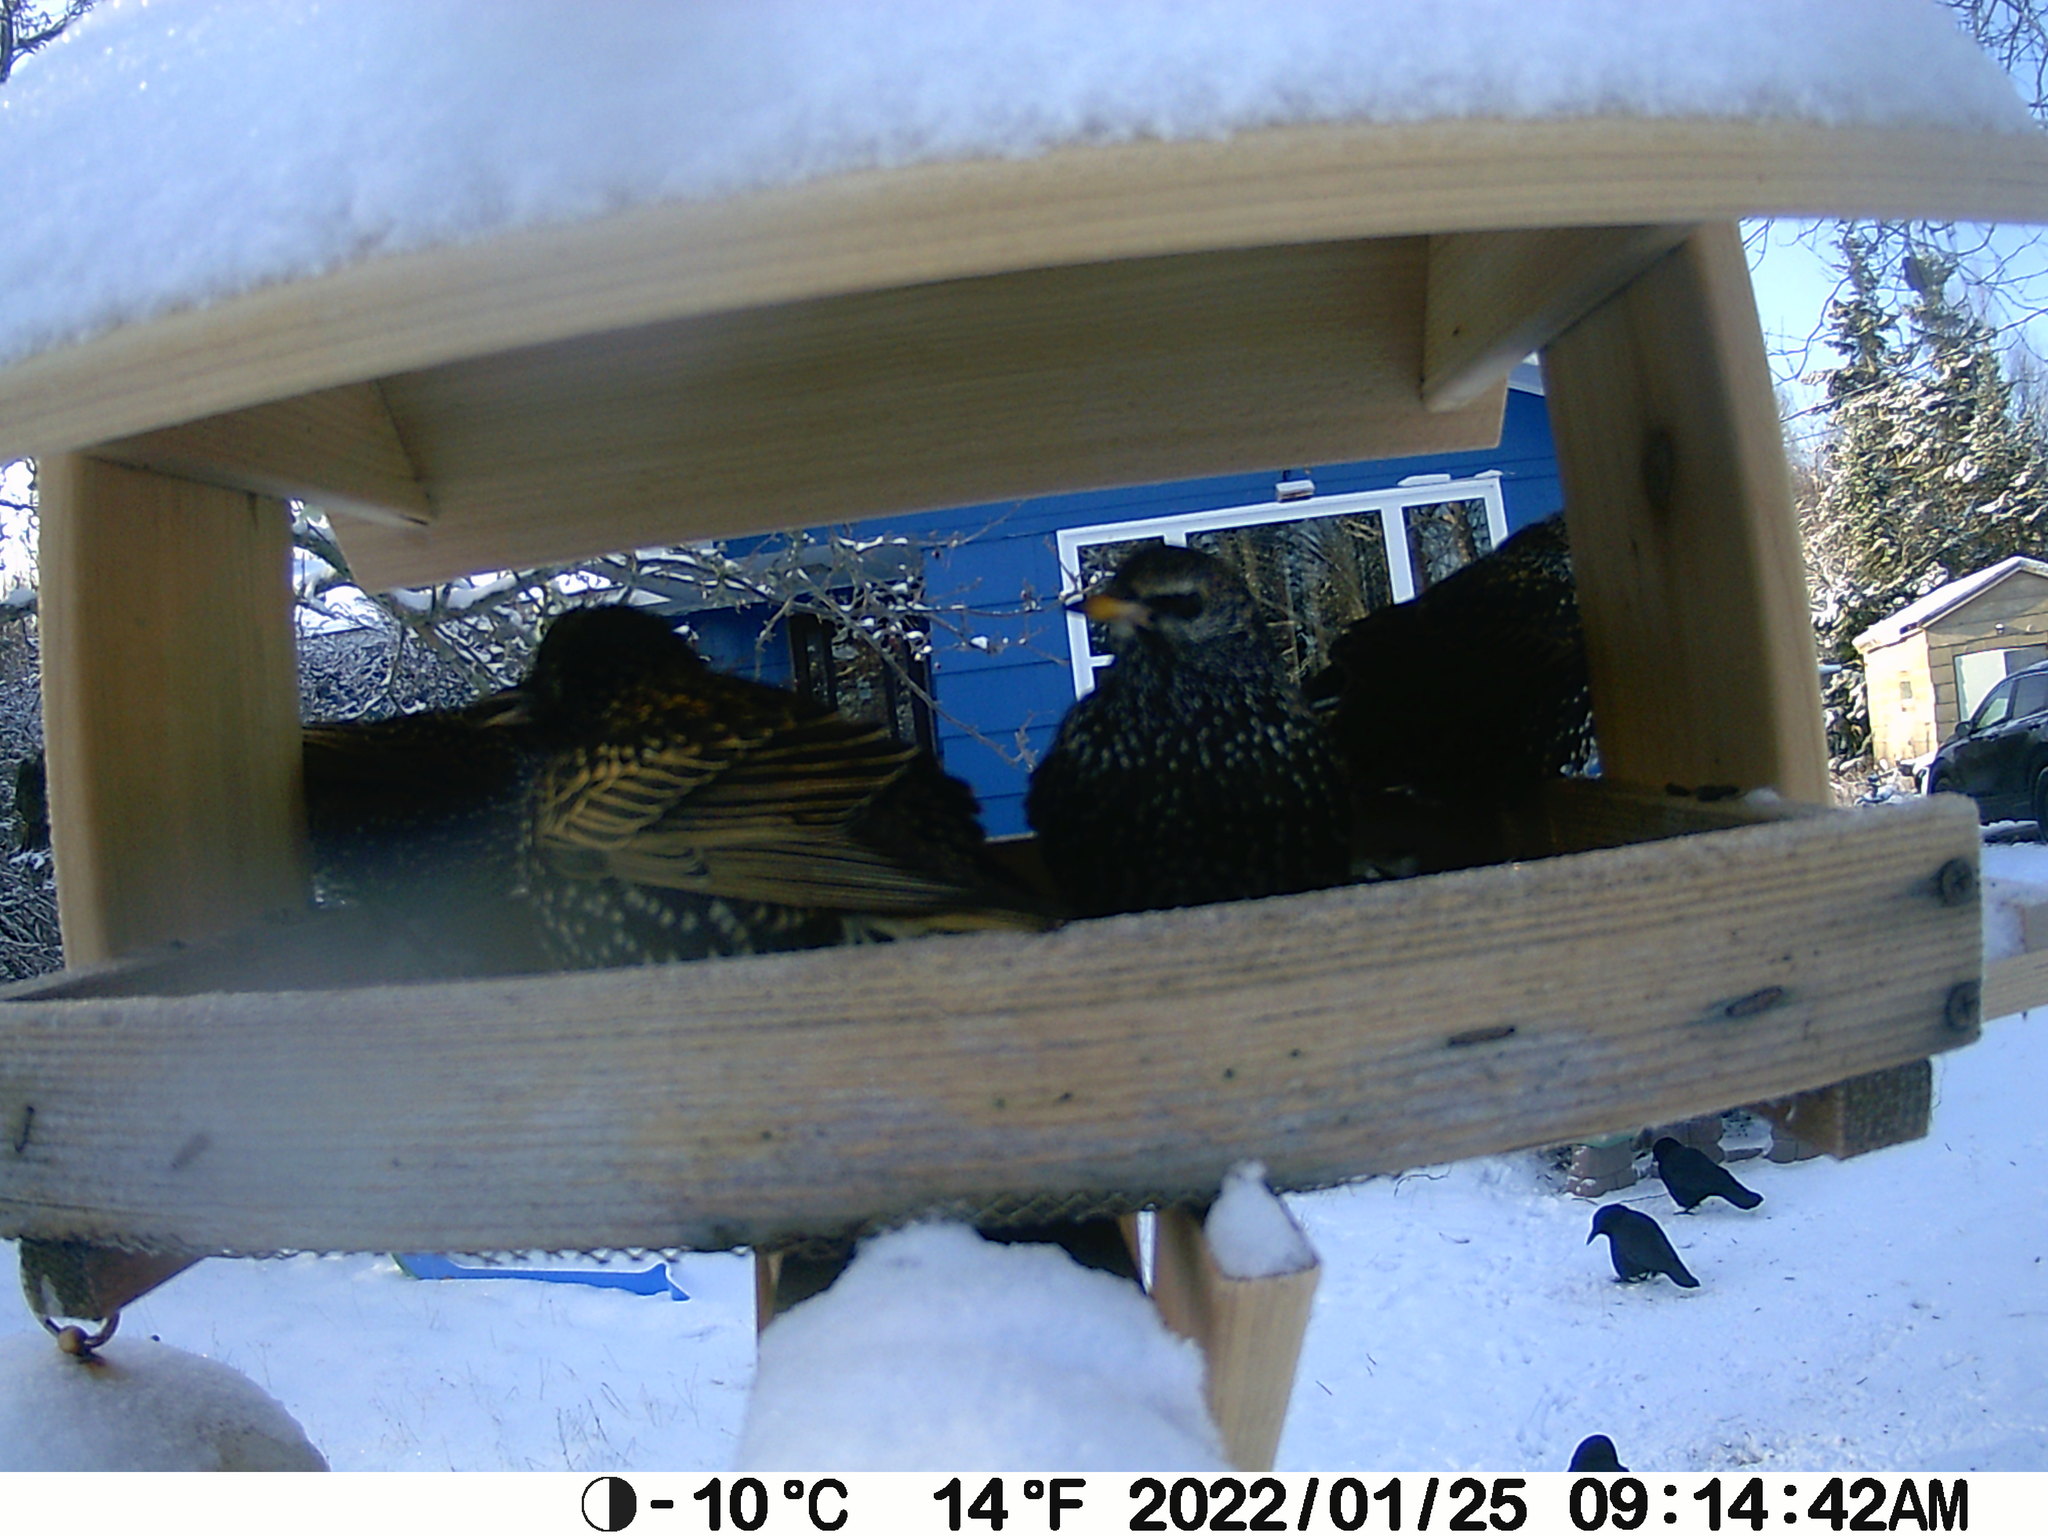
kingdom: Animalia
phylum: Chordata
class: Aves
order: Passeriformes
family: Sturnidae
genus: Sturnus
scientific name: Sturnus vulgaris
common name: Common starling
